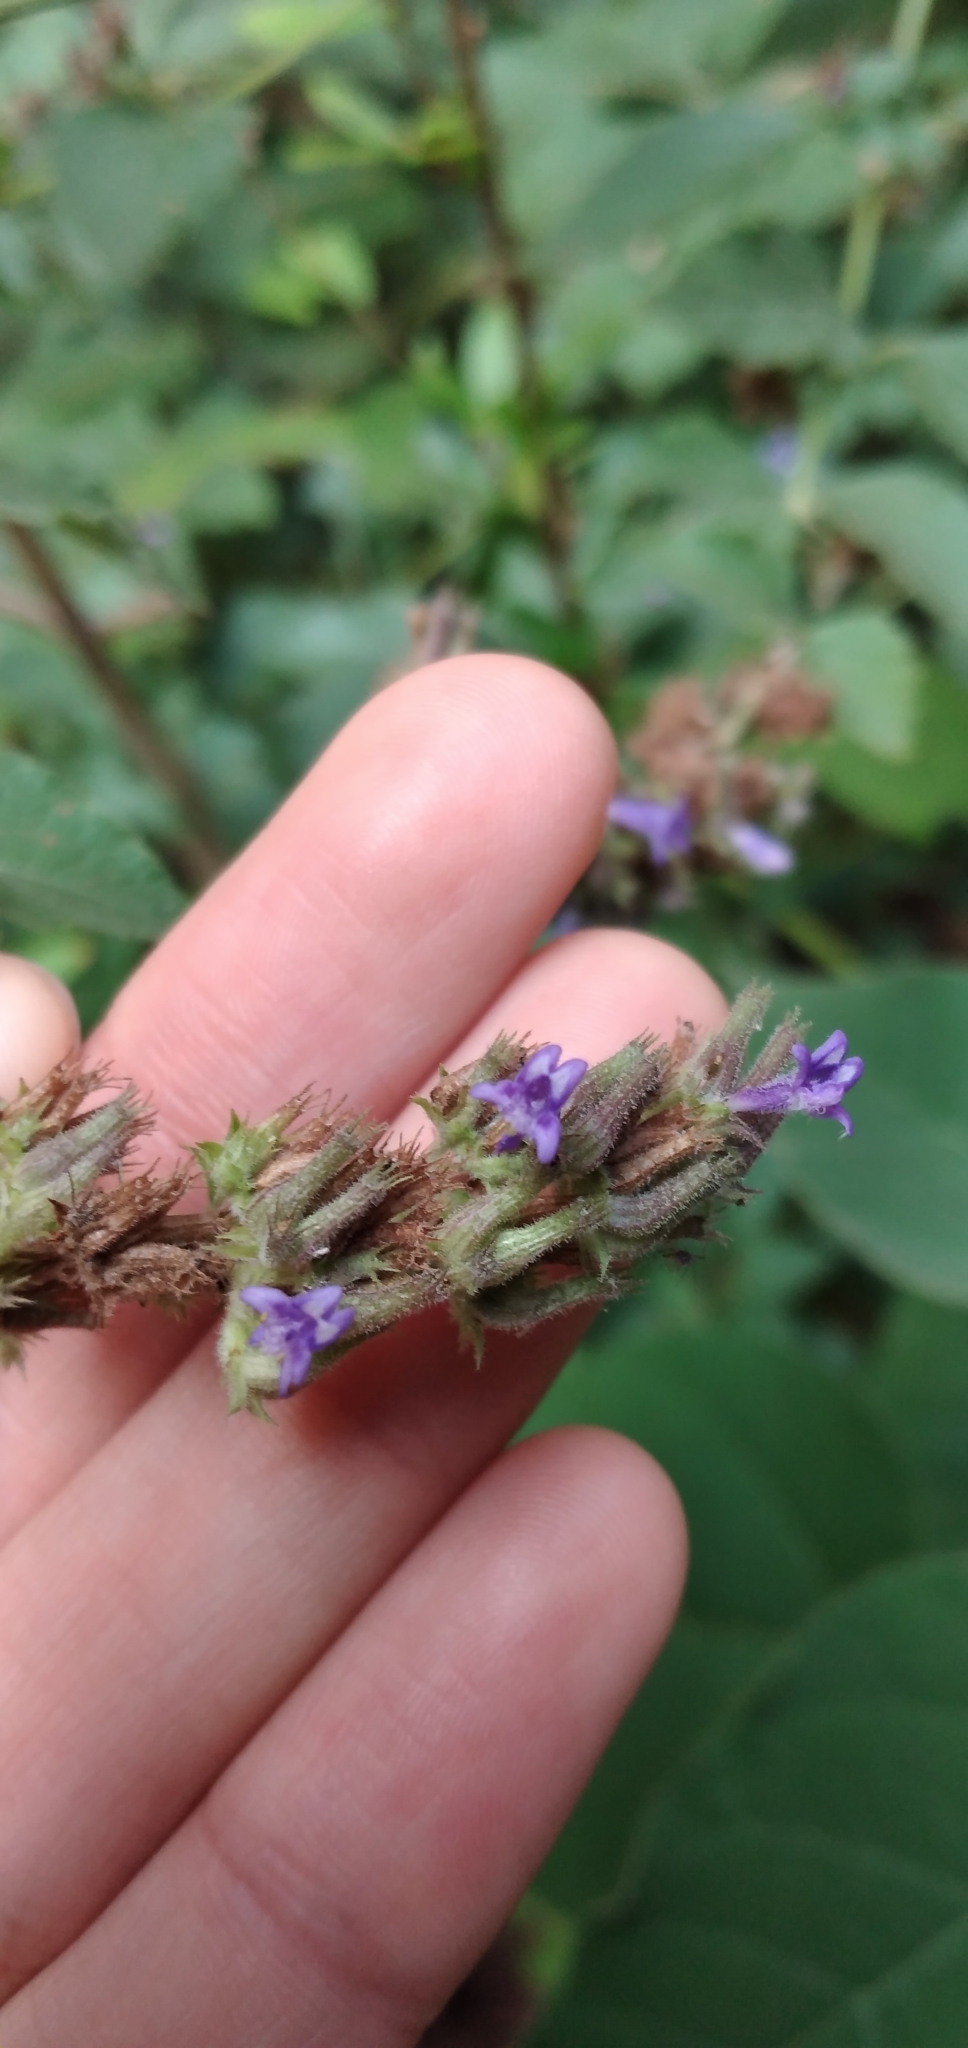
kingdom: Plantae
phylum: Tracheophyta
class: Magnoliopsida
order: Lamiales
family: Lamiaceae
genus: Cantinoa
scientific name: Cantinoa mutabilis
